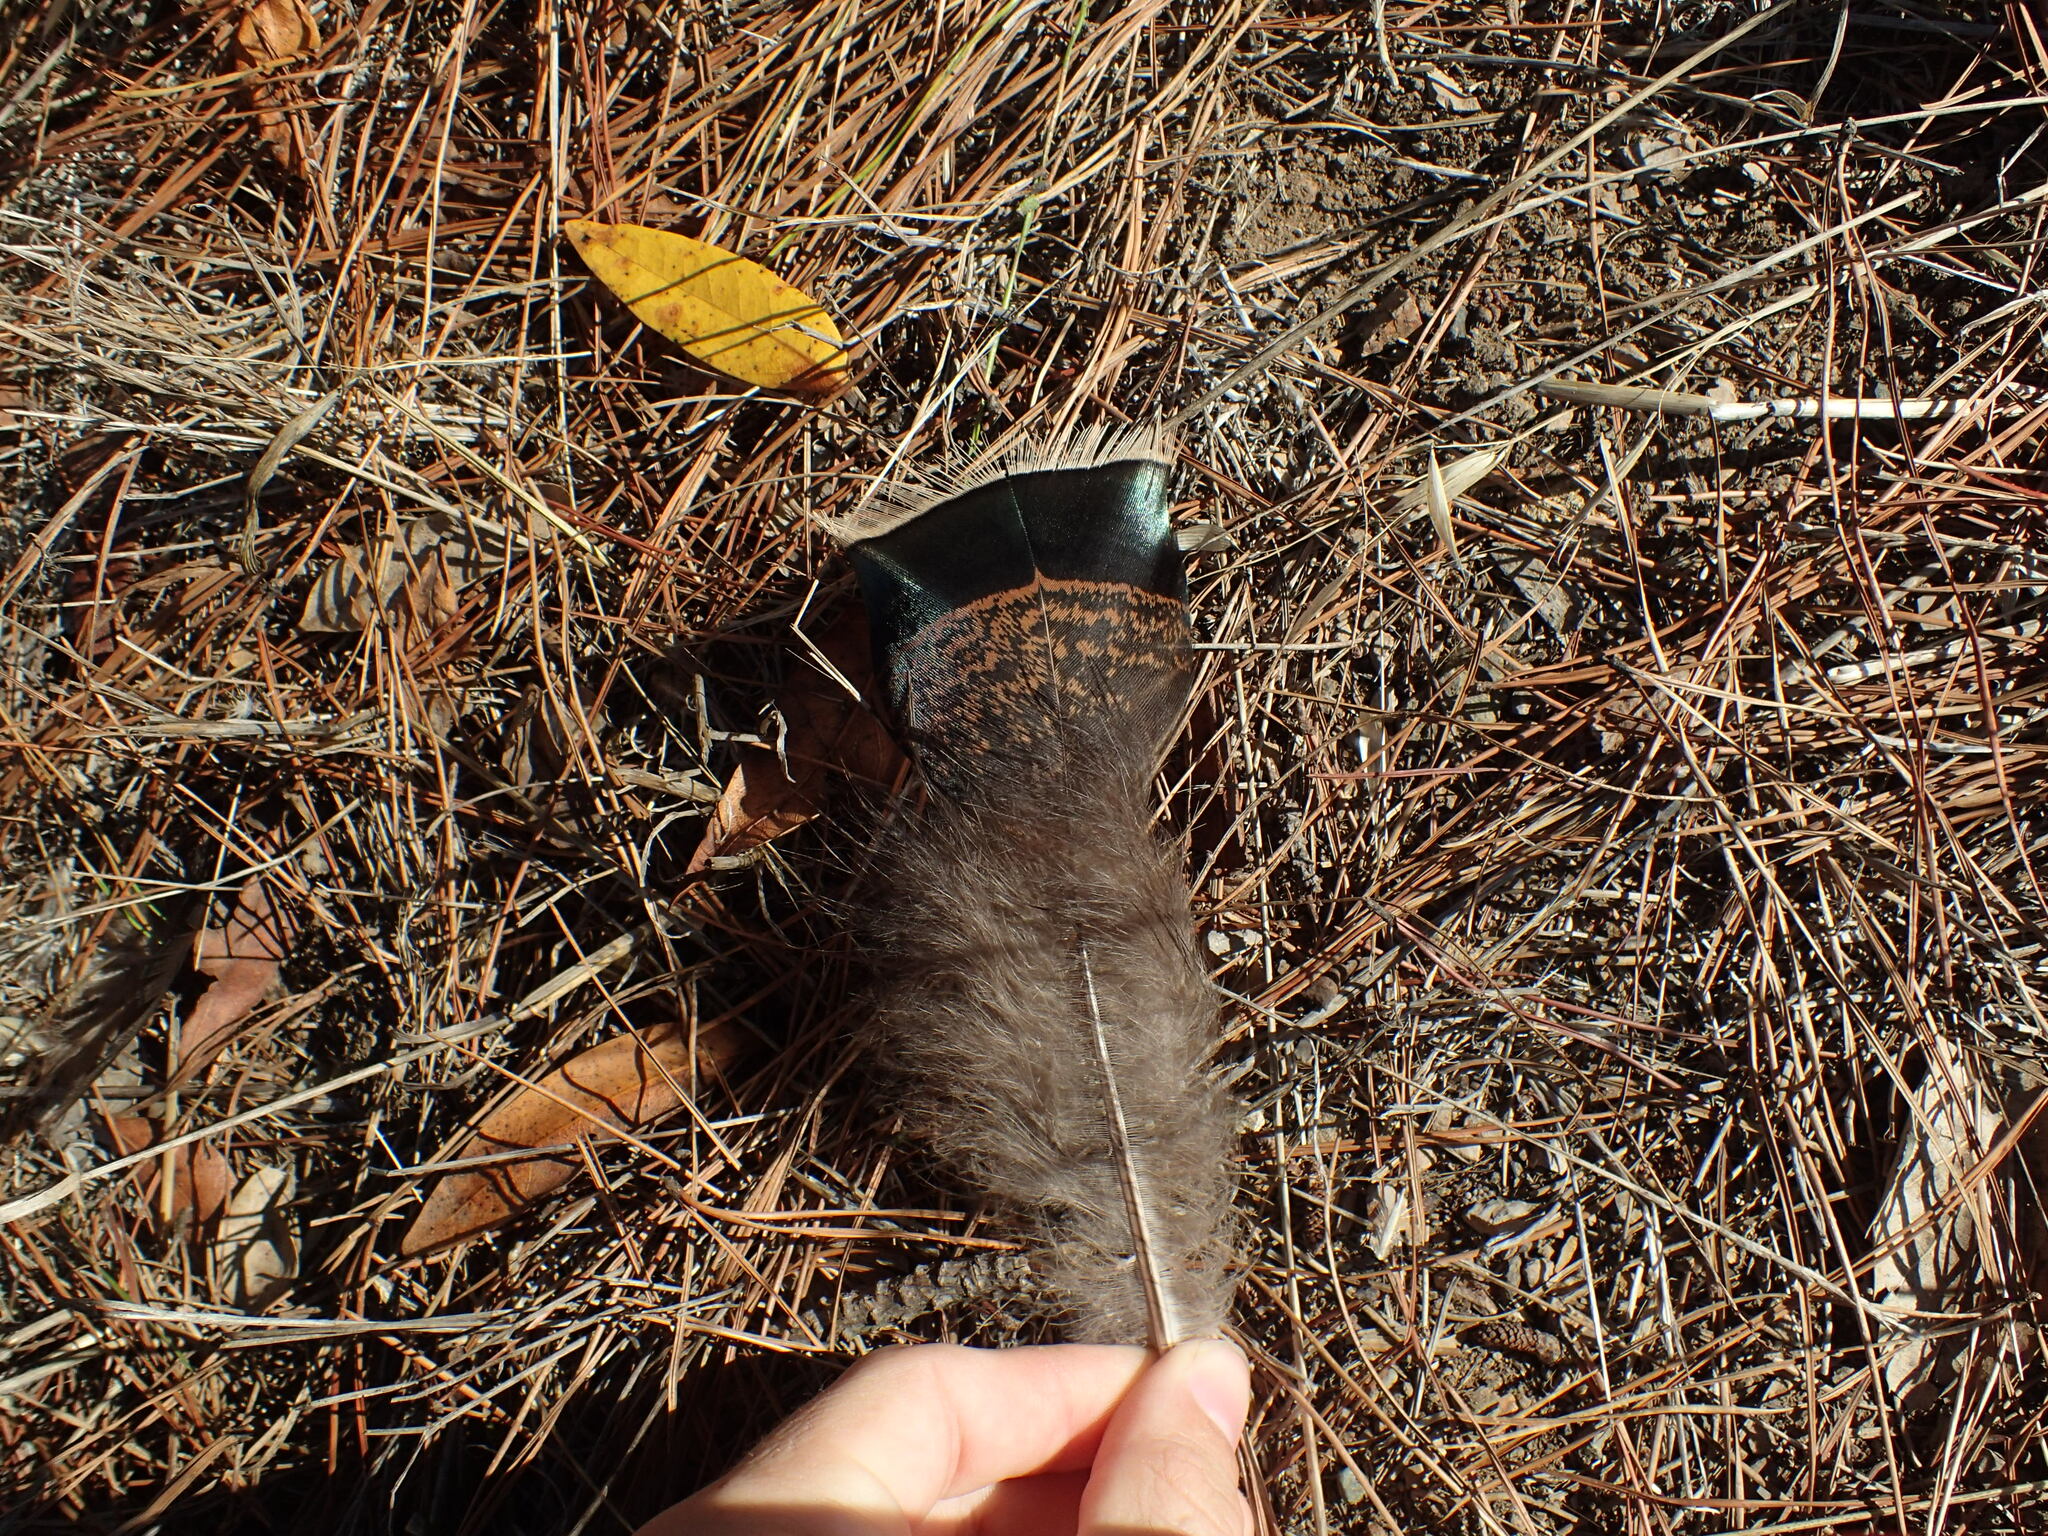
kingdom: Animalia
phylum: Chordata
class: Aves
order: Galliformes
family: Phasianidae
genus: Meleagris
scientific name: Meleagris gallopavo
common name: Wild turkey
